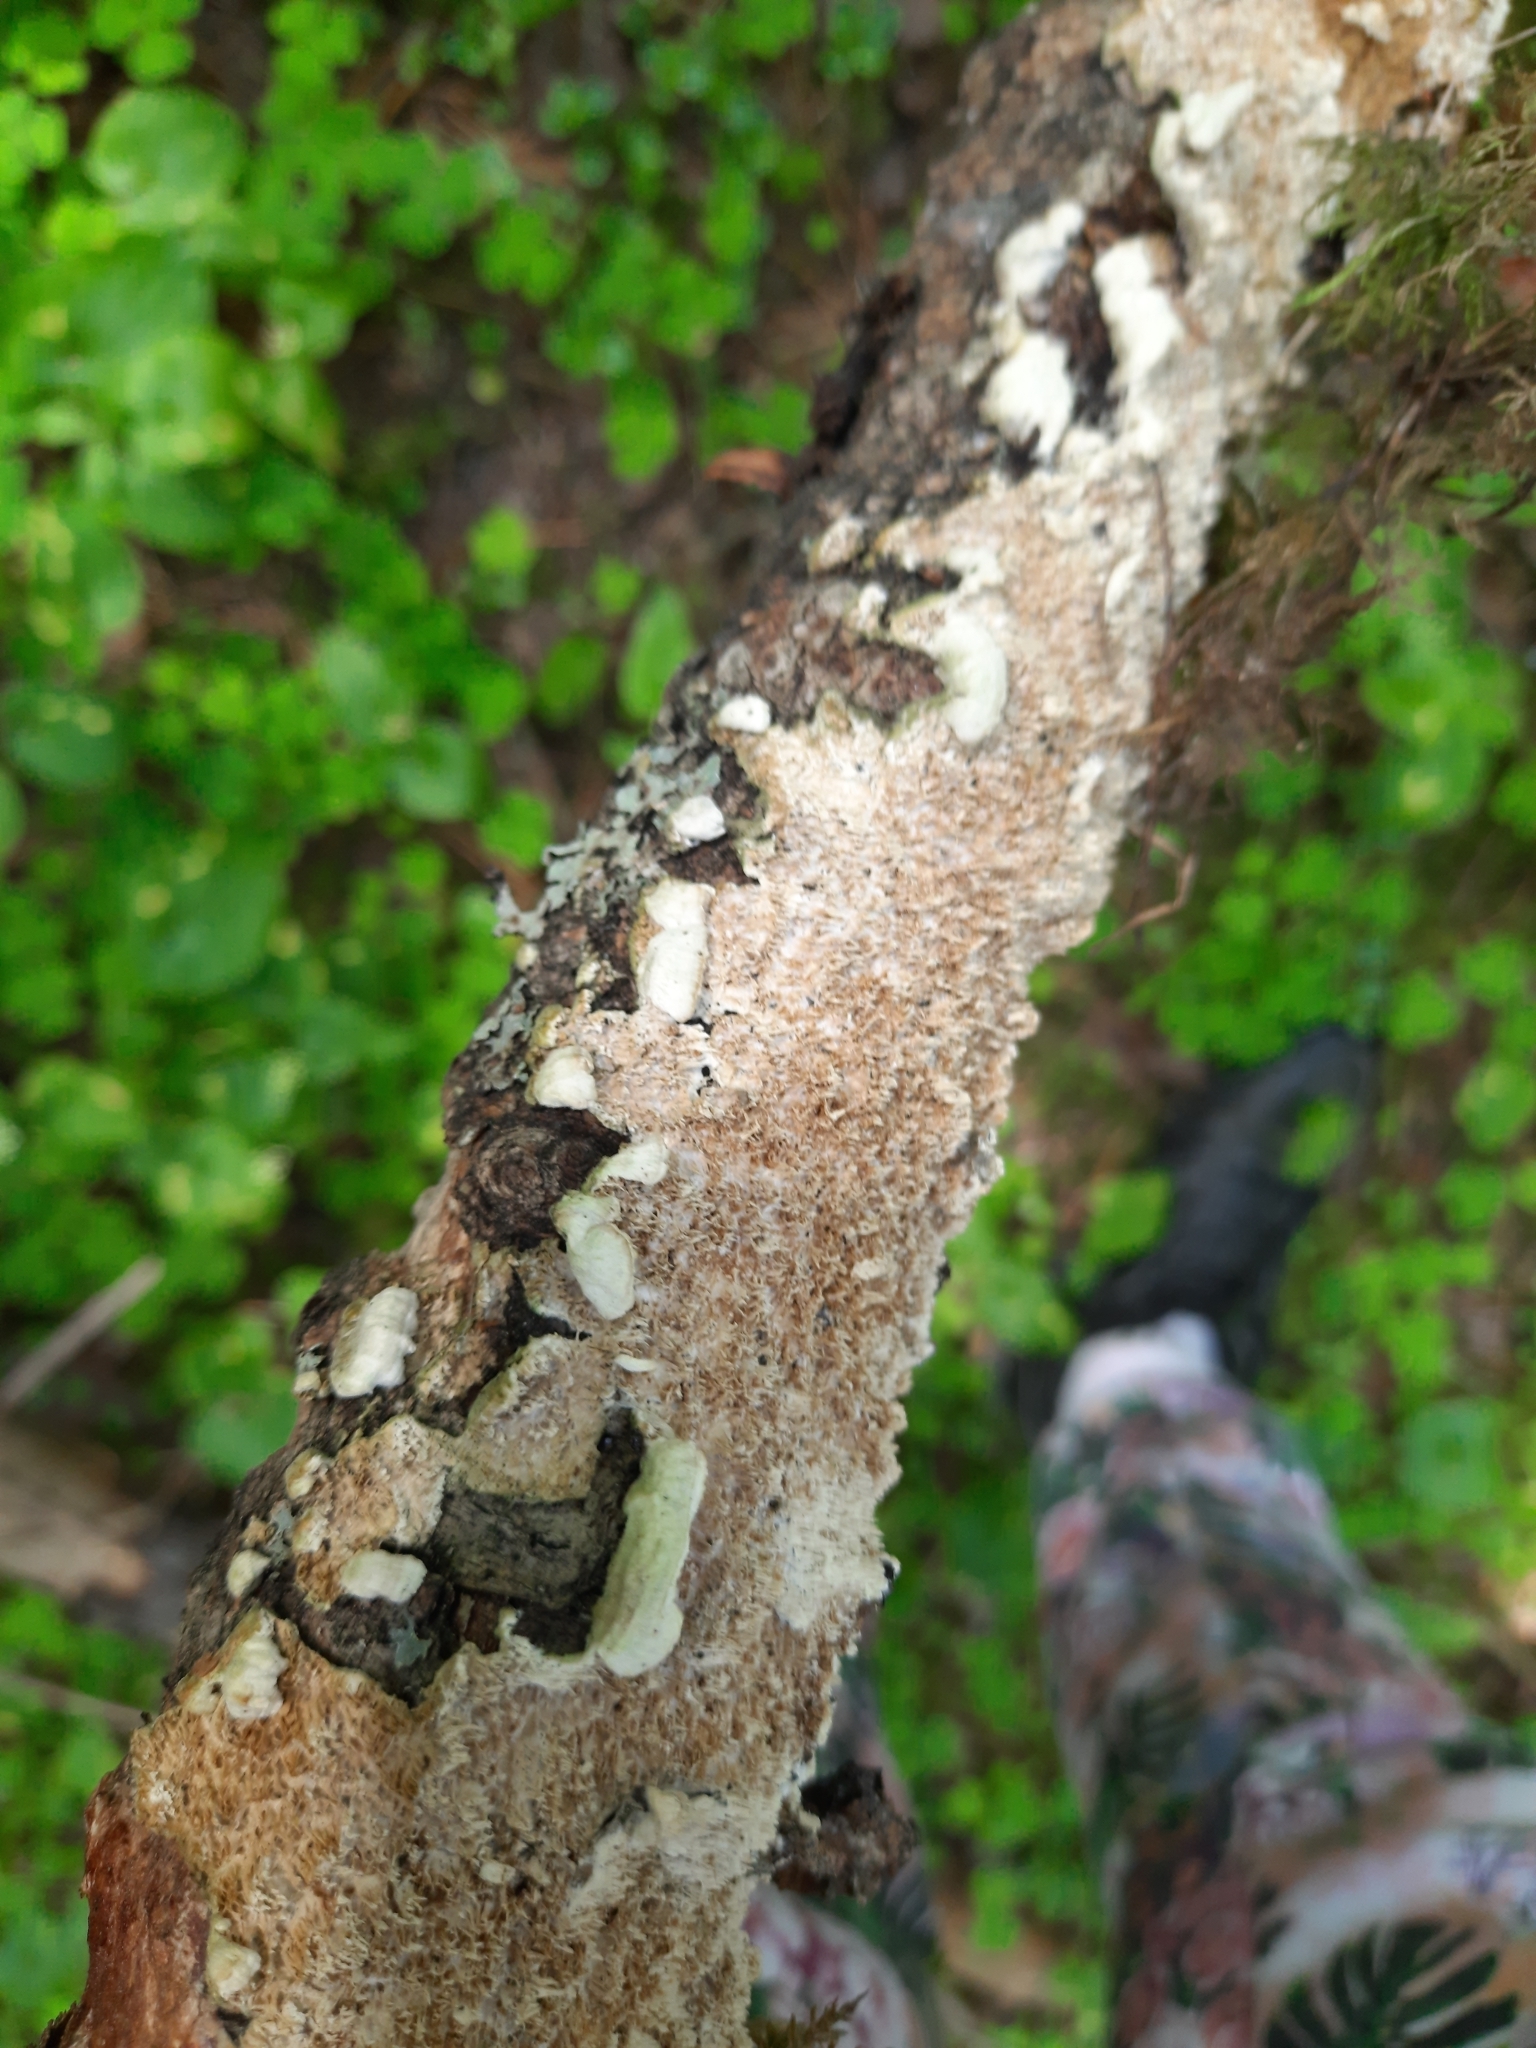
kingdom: Fungi
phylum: Basidiomycota
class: Agaricomycetes
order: Polyporales
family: Irpicaceae
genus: Irpex
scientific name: Irpex lacteus
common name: Milk-white toothed polypore
